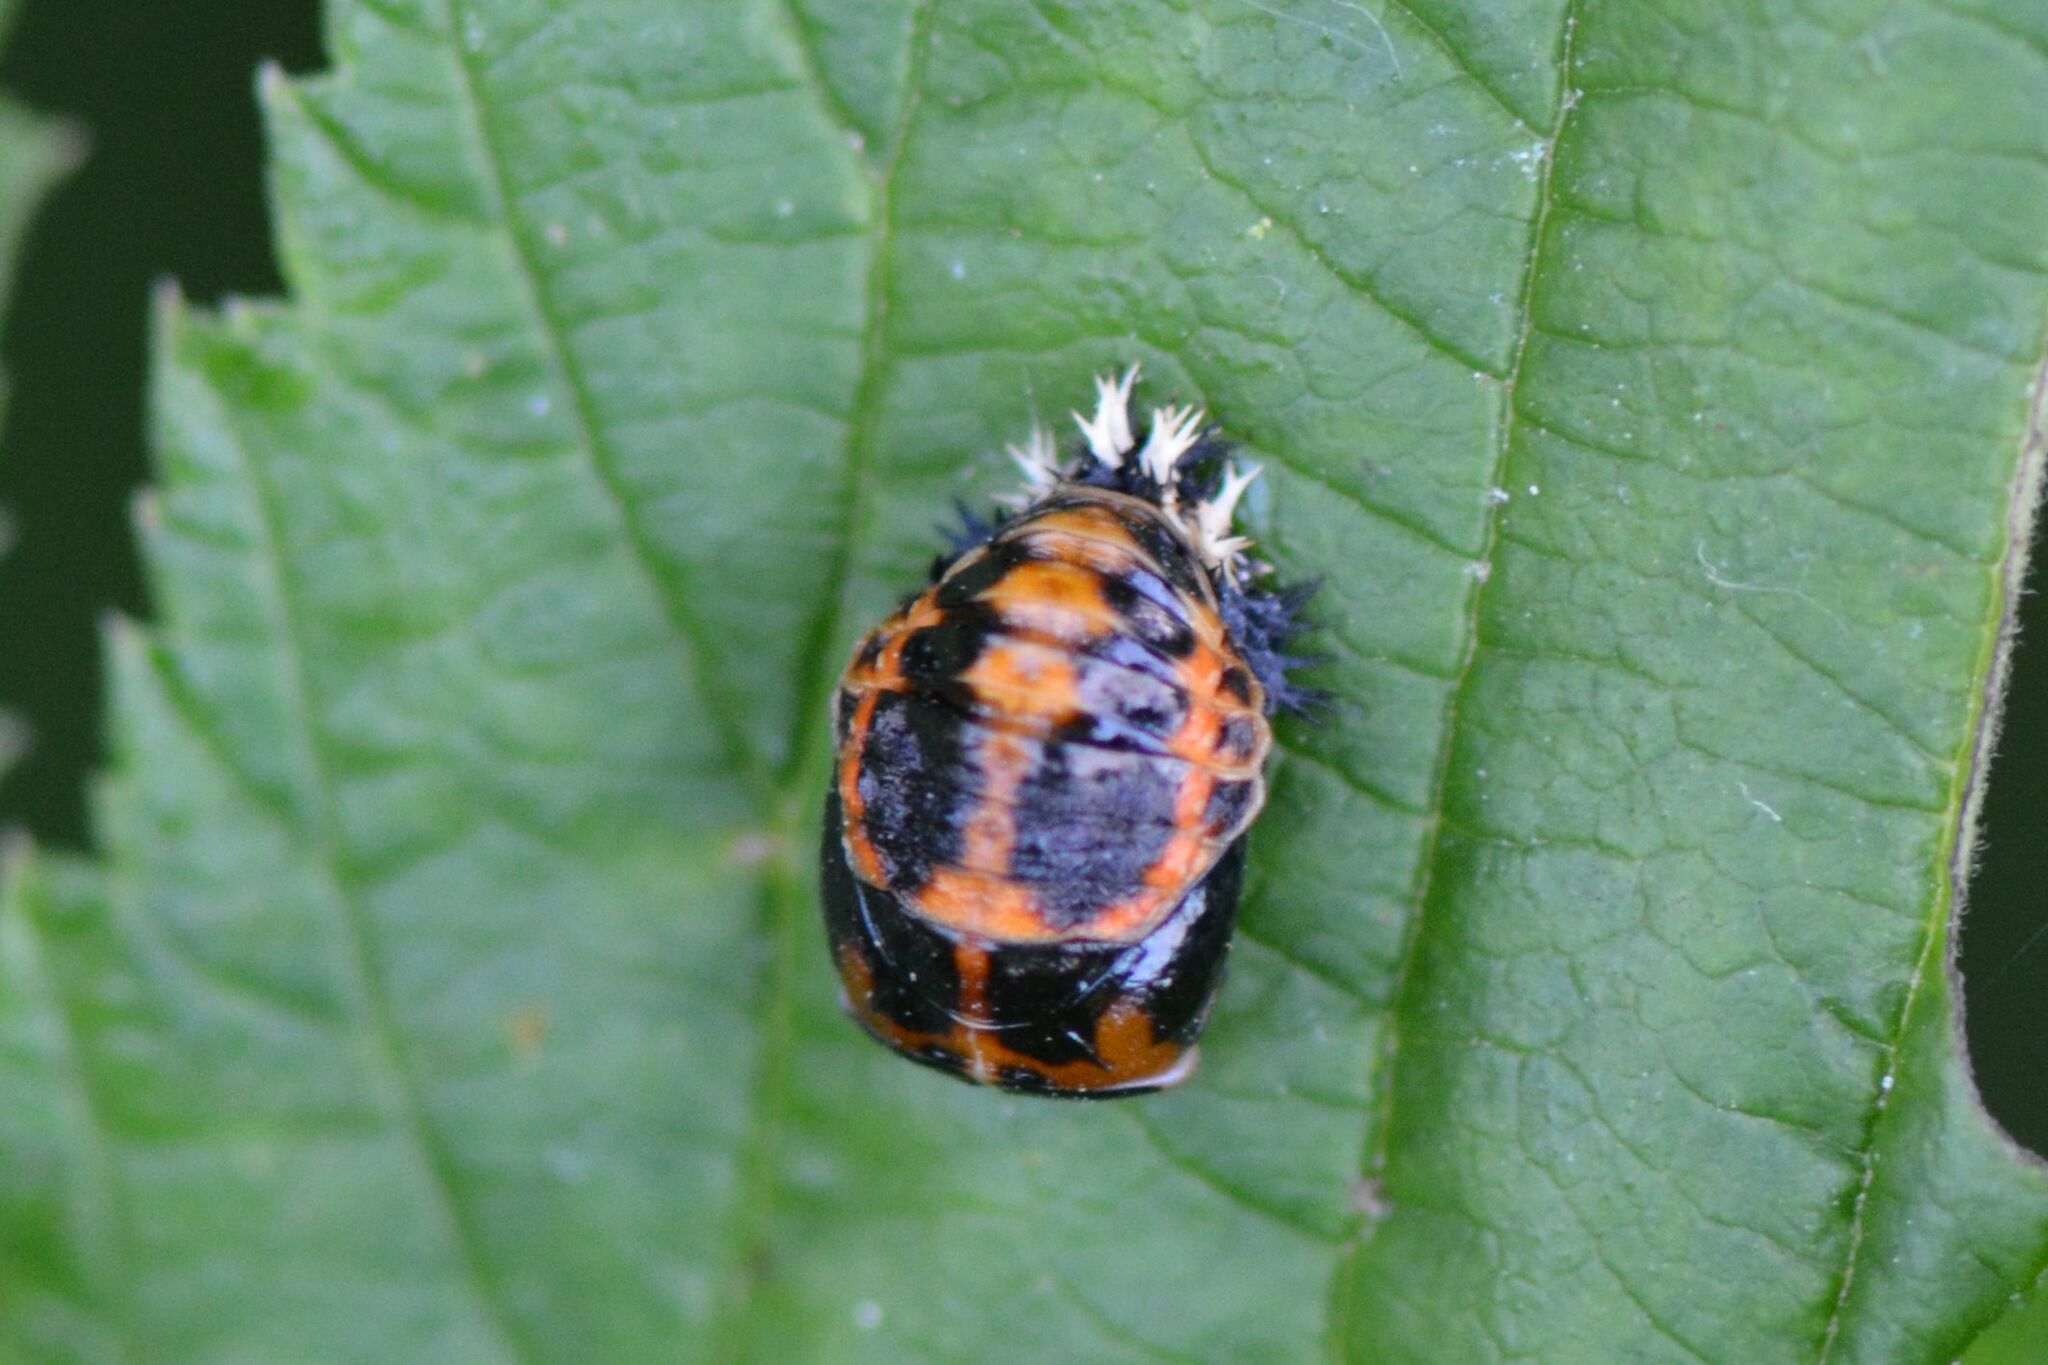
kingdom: Animalia
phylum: Arthropoda
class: Insecta
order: Coleoptera
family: Coccinellidae
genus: Harmonia
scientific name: Harmonia axyridis
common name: Harlequin ladybird
